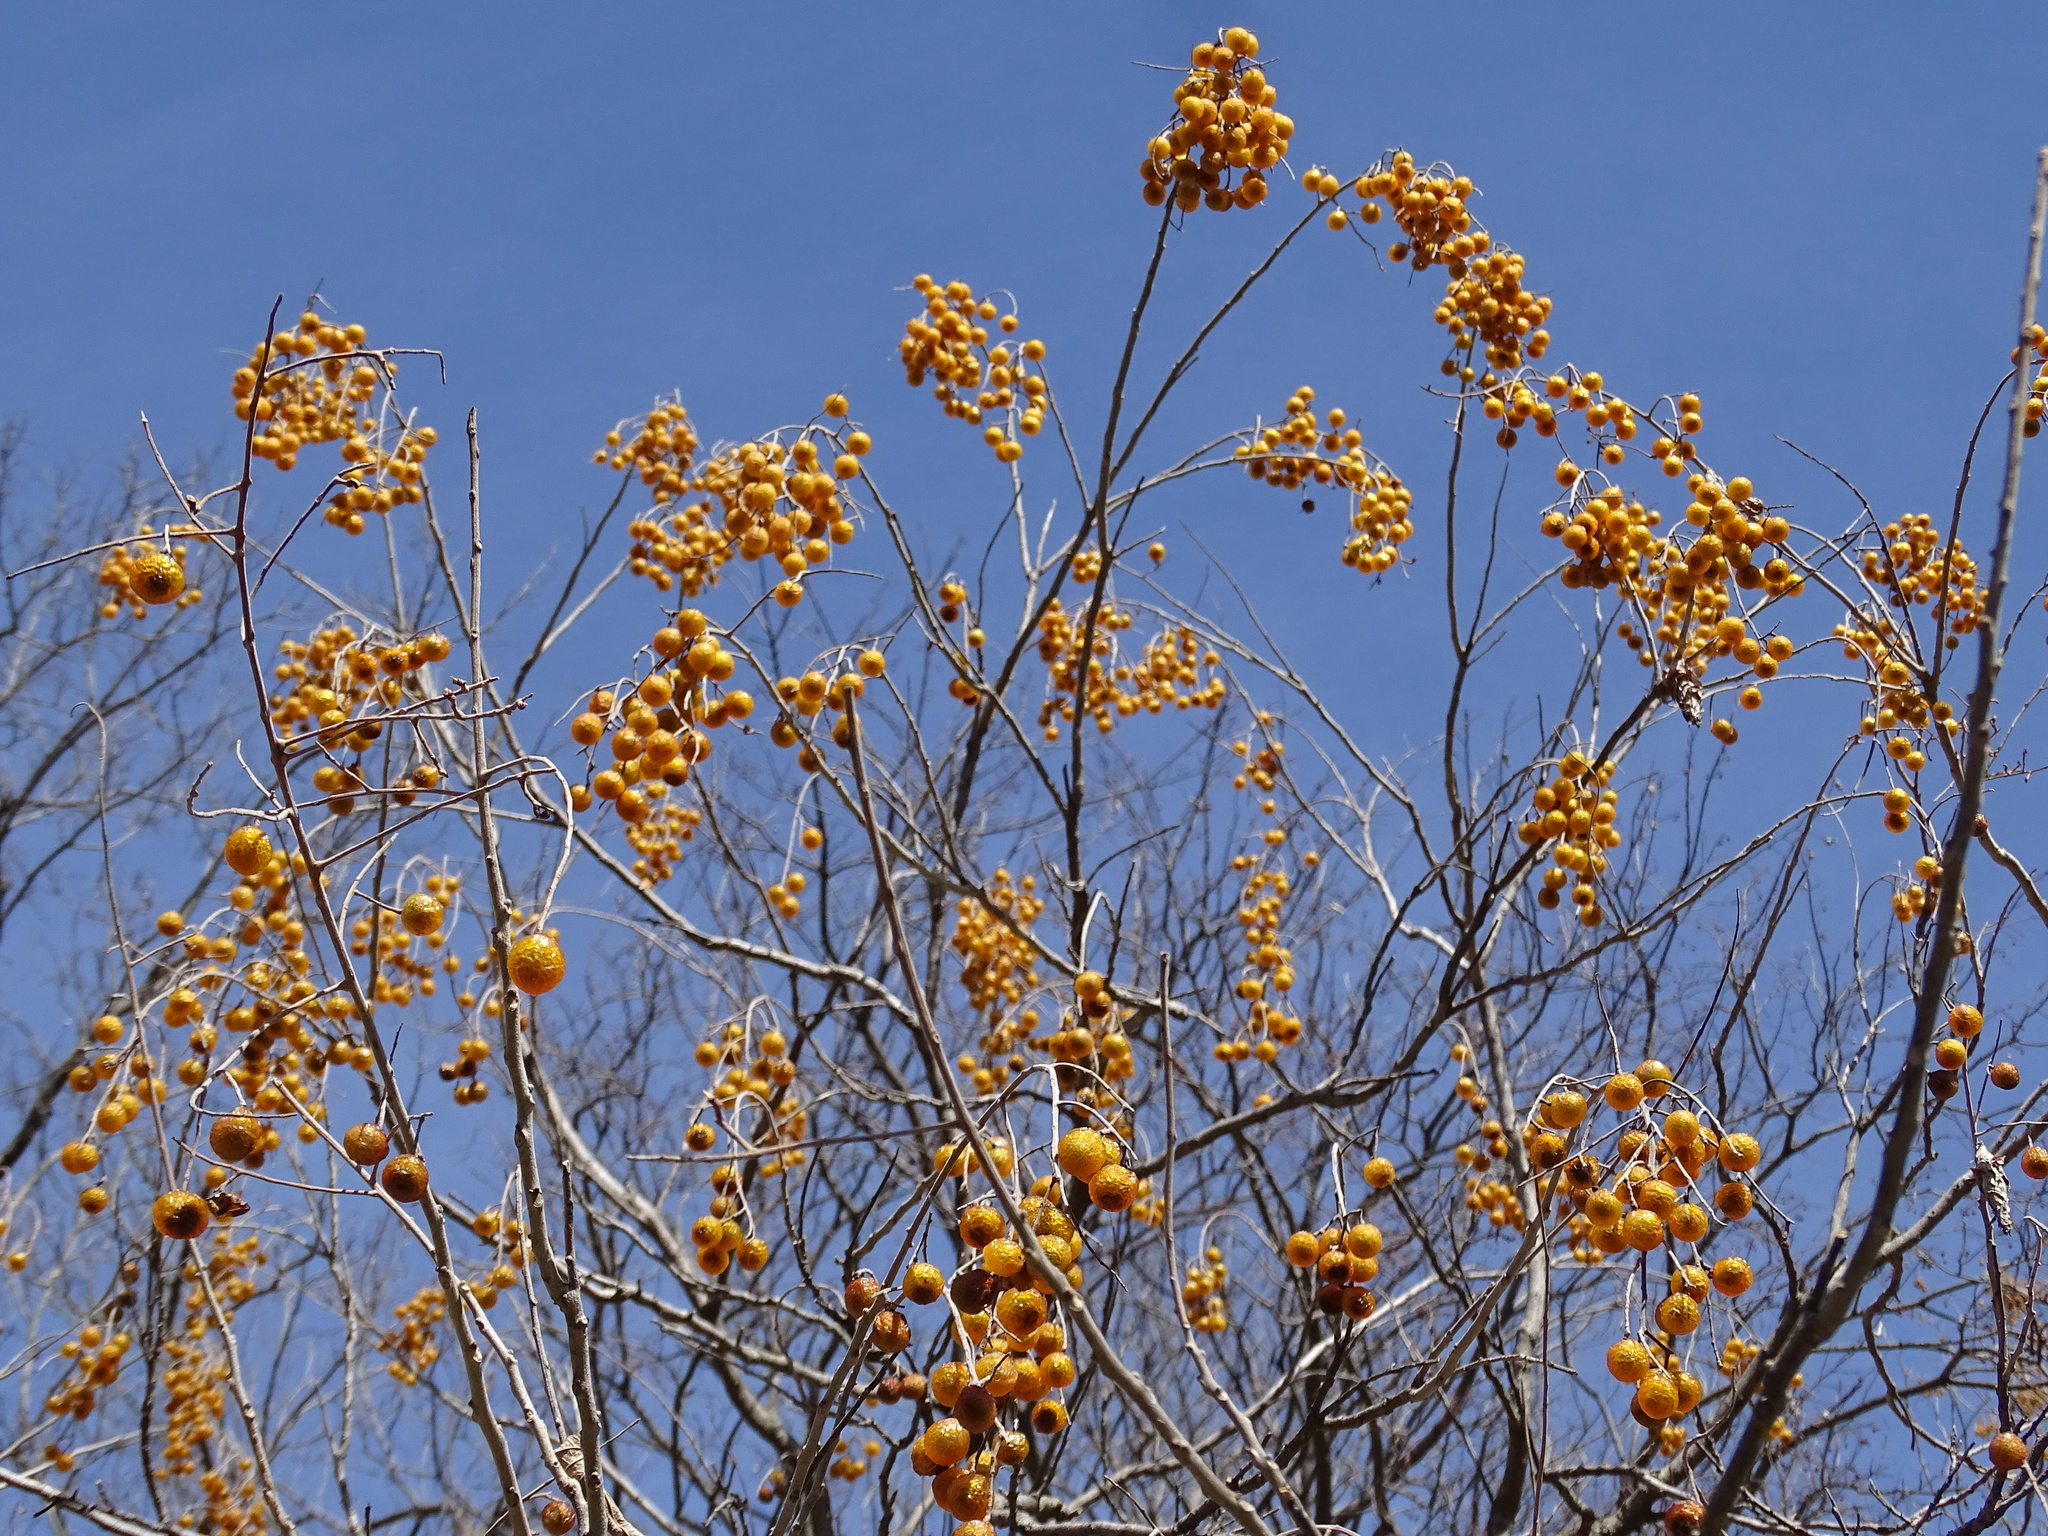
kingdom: Plantae
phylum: Tracheophyta
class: Magnoliopsida
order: Sapindales
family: Sapindaceae
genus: Sapindus
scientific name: Sapindus drummondii
